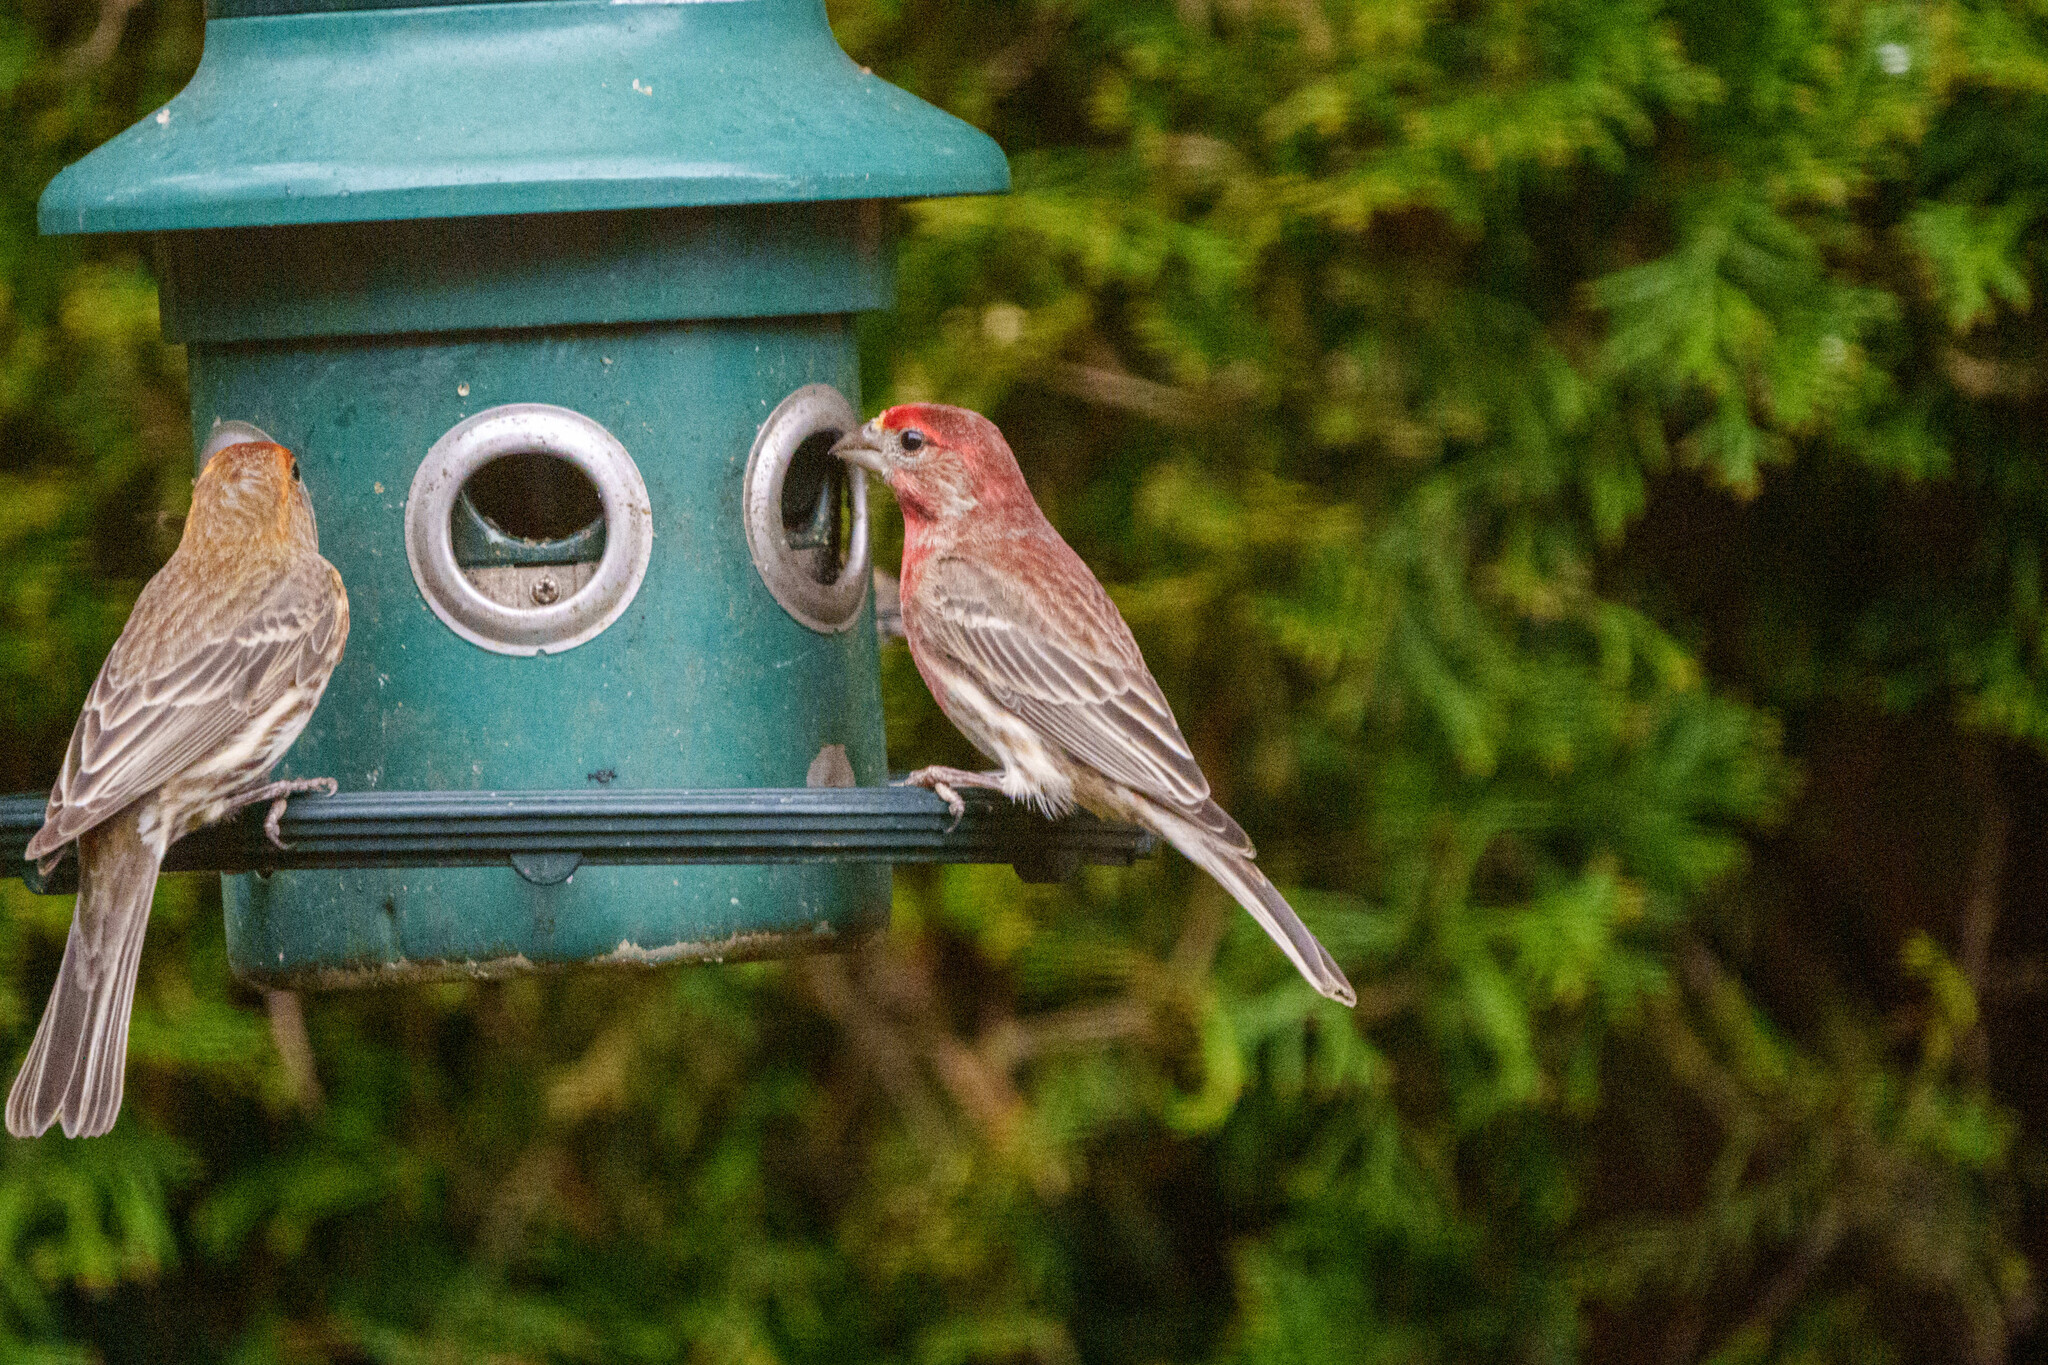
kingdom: Animalia
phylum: Chordata
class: Aves
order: Passeriformes
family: Fringillidae
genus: Haemorhous
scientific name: Haemorhous mexicanus
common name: House finch
